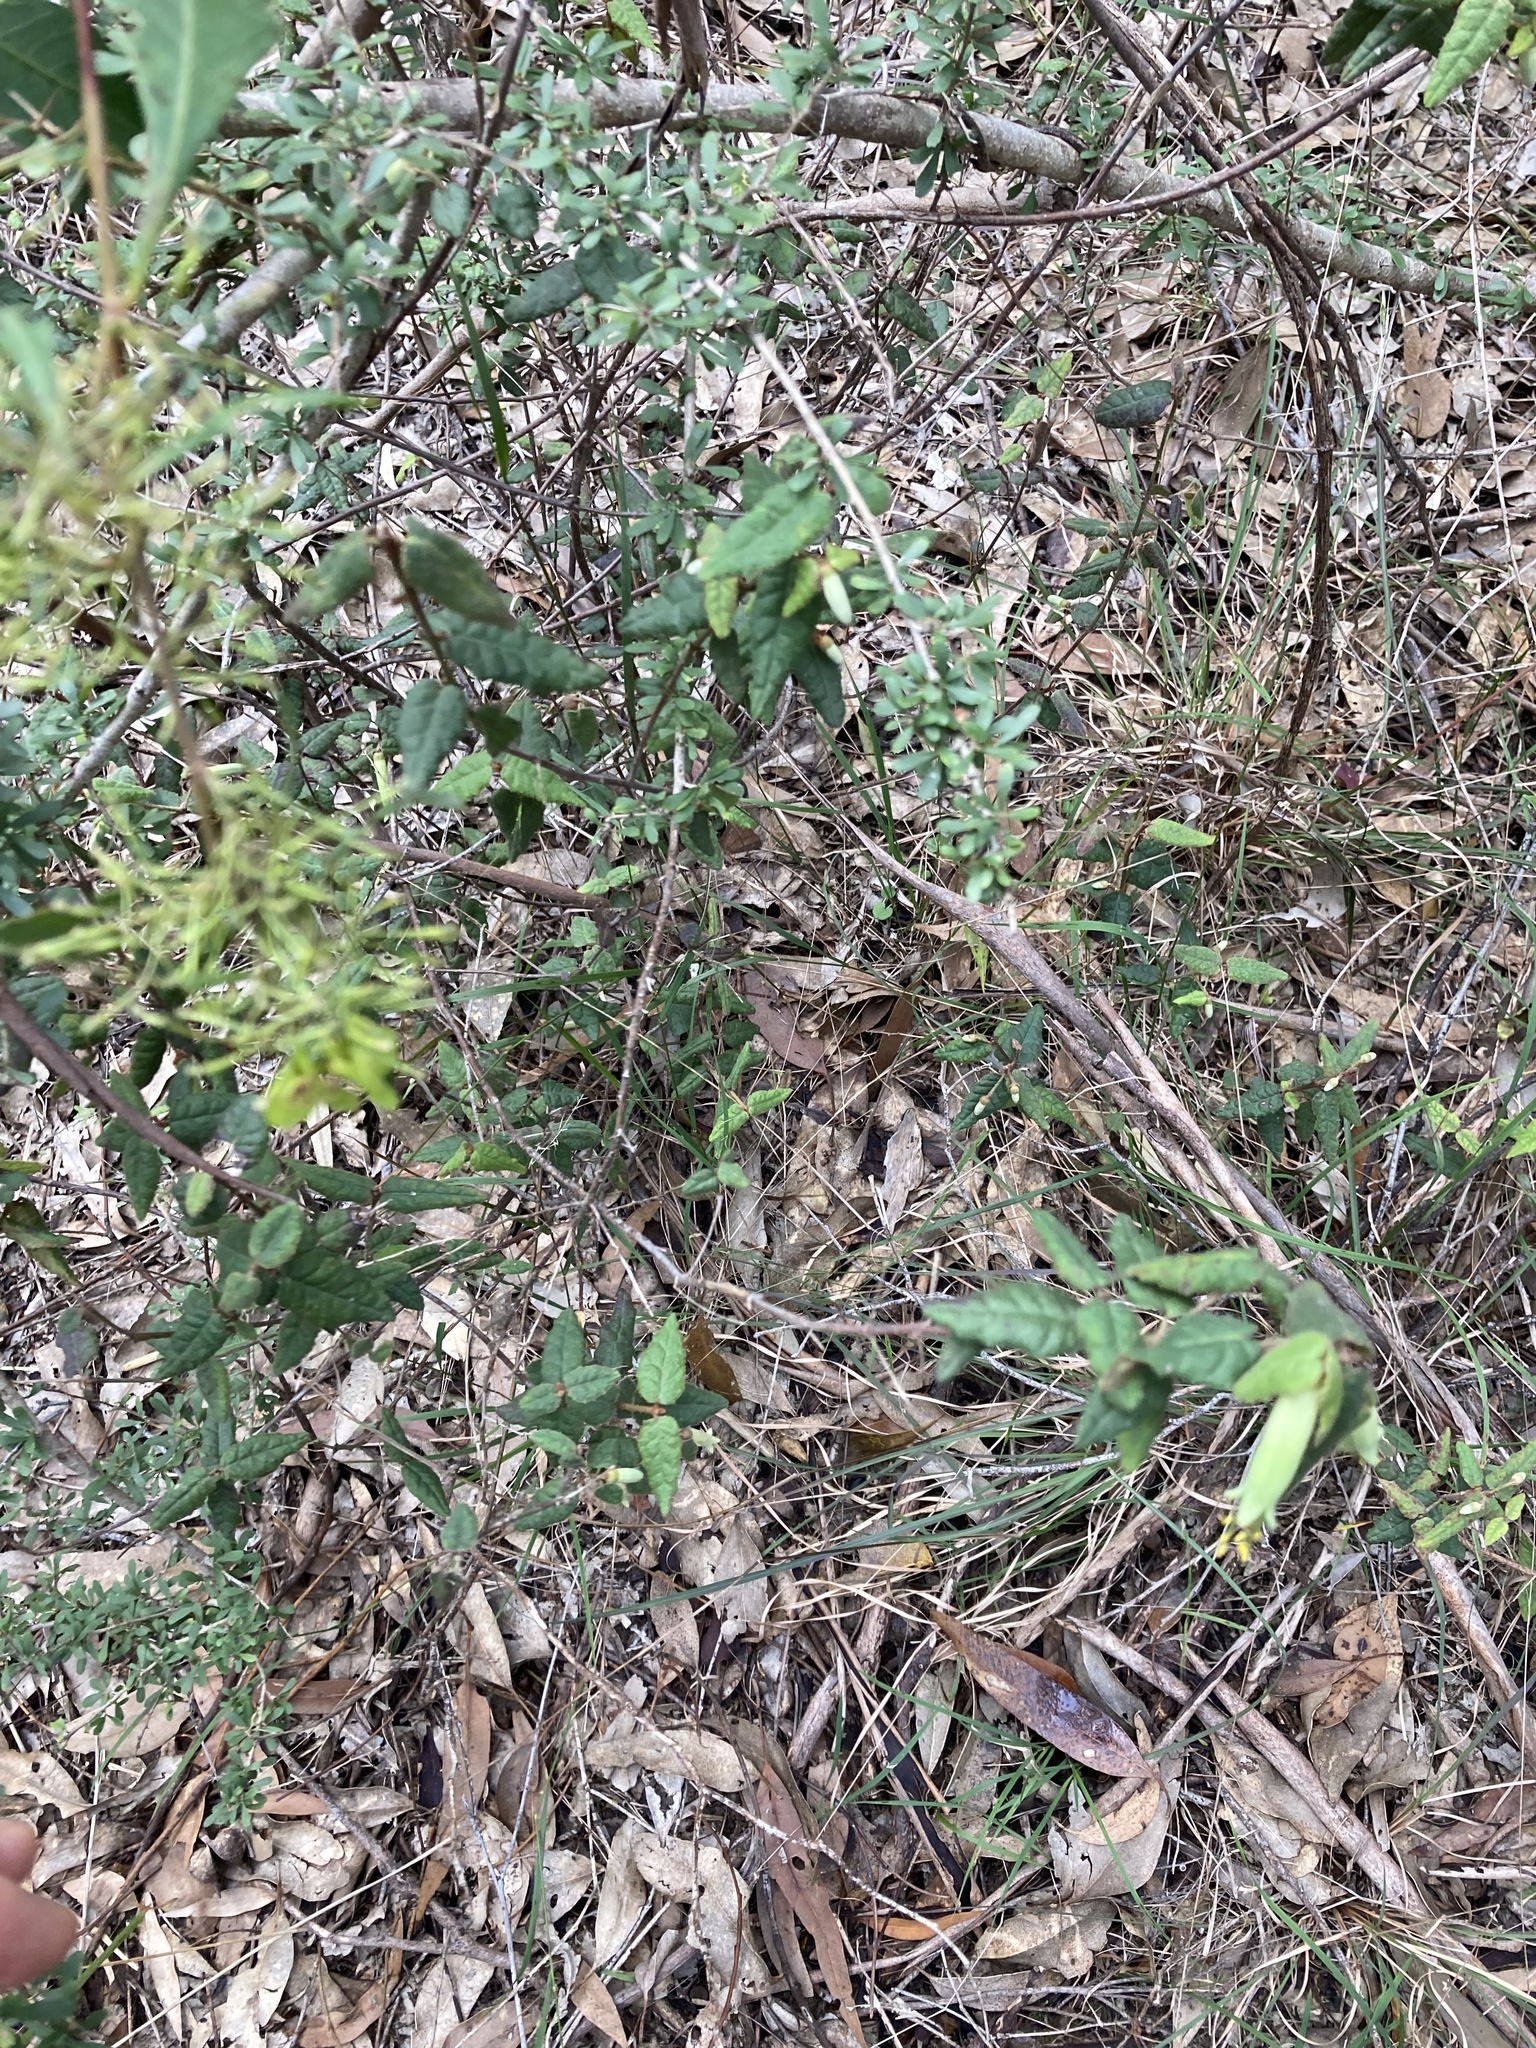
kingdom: Plantae
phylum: Tracheophyta
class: Magnoliopsida
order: Sapindales
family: Rutaceae
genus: Correa
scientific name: Correa reflexa
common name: Common correa
